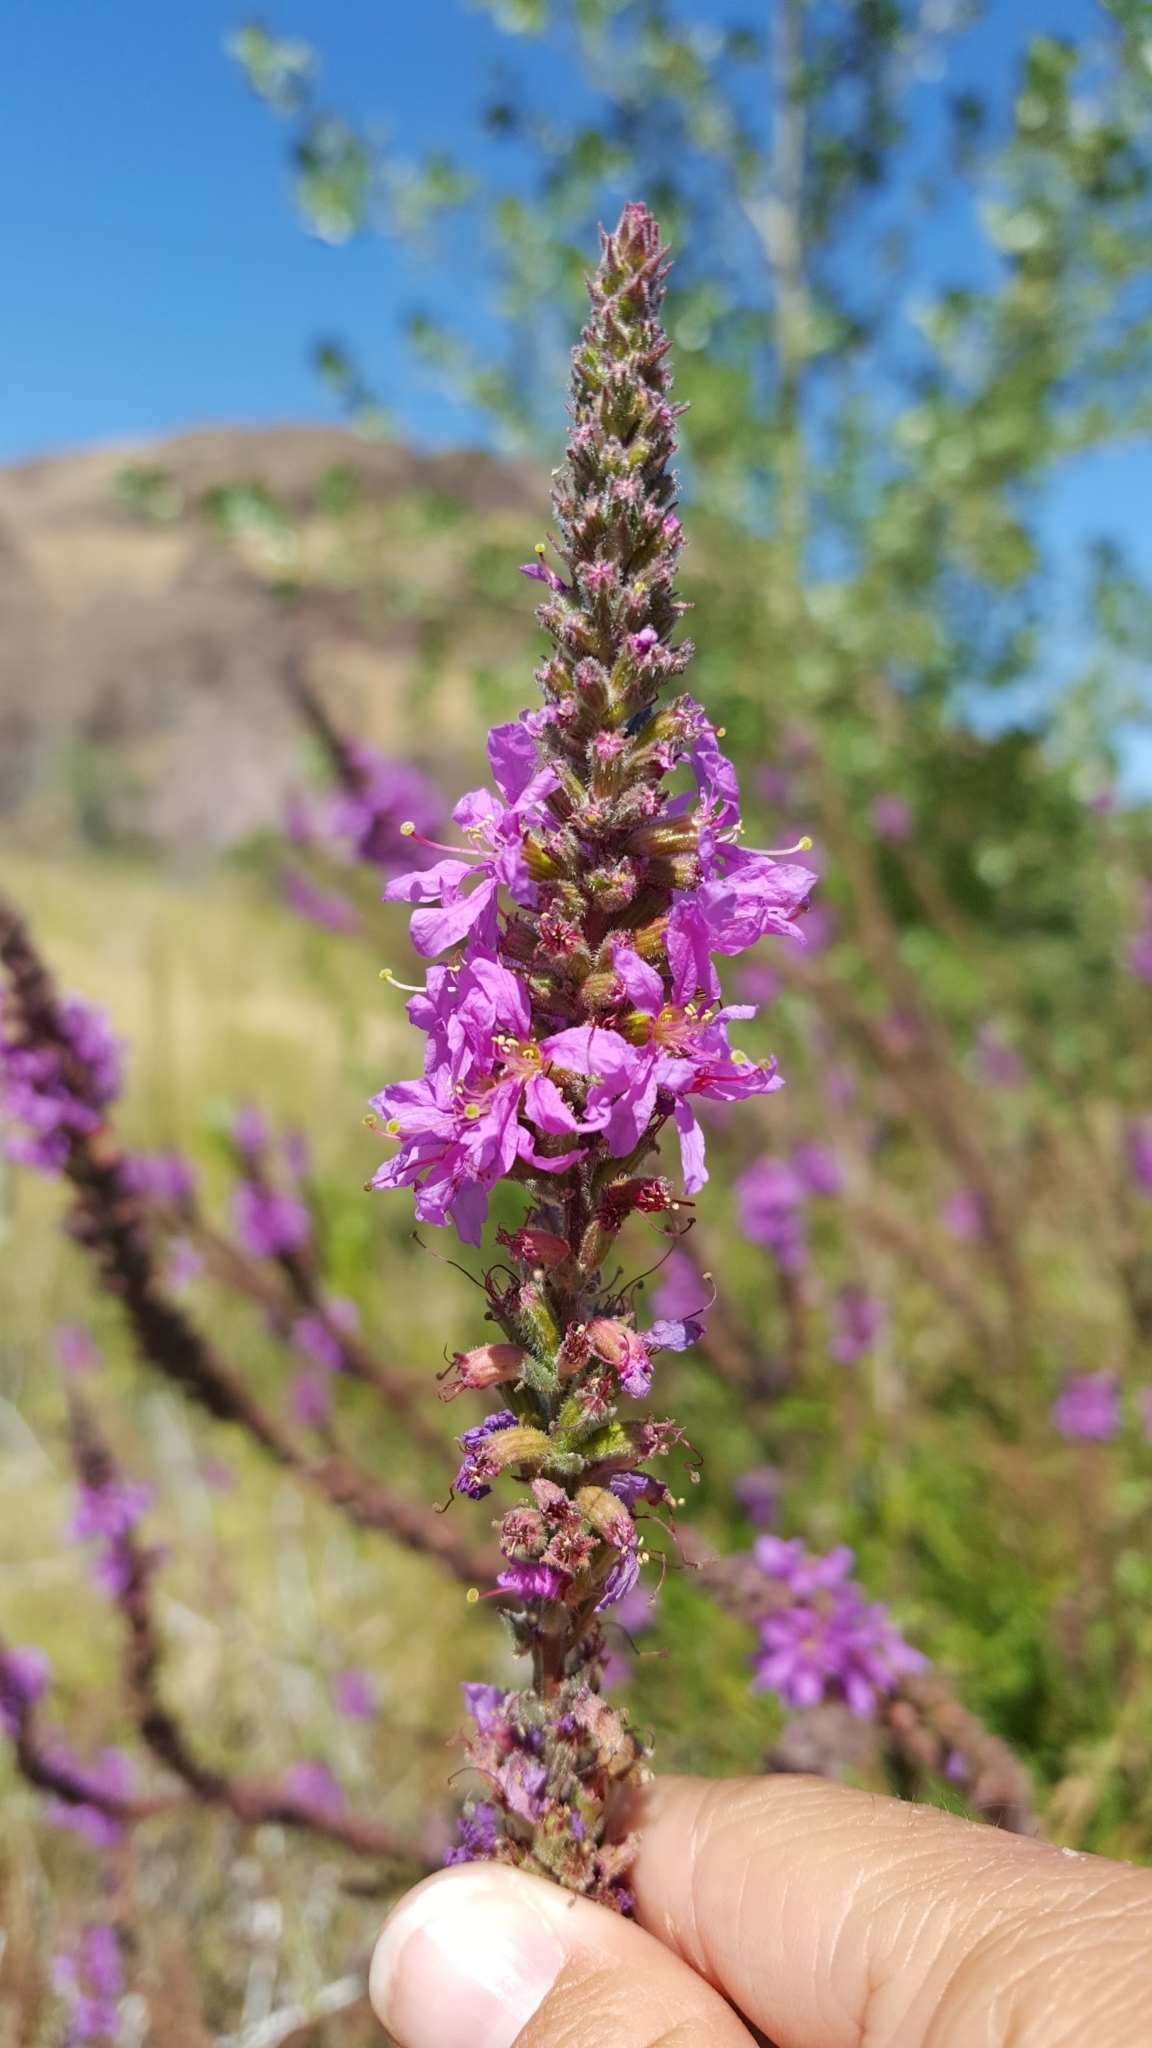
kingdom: Plantae
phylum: Tracheophyta
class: Magnoliopsida
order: Myrtales
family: Lythraceae
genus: Lythrum
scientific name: Lythrum salicaria
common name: Purple loosestrife
